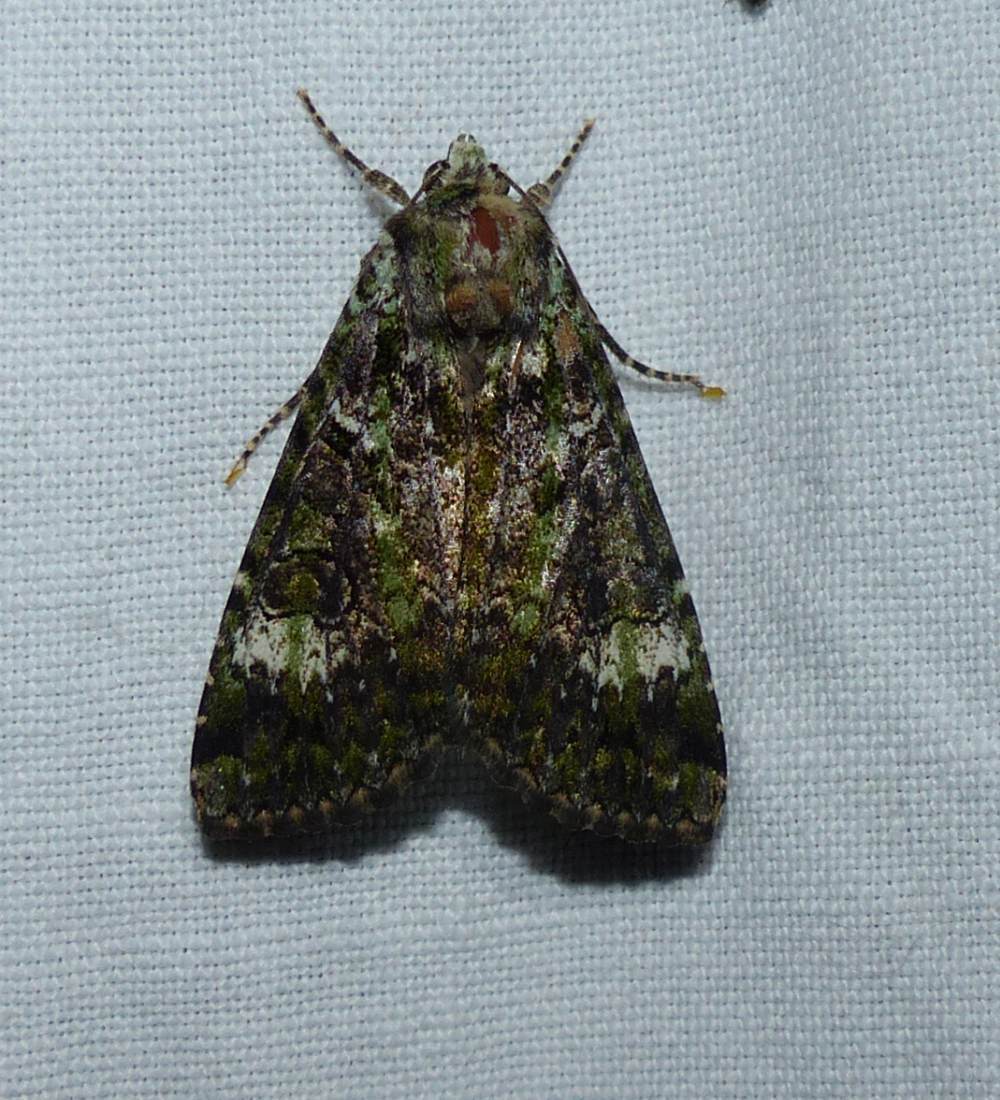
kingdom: Animalia
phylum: Arthropoda
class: Insecta
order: Lepidoptera
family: Noctuidae
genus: Anaplectoides
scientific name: Anaplectoides prasina
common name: Green arches
